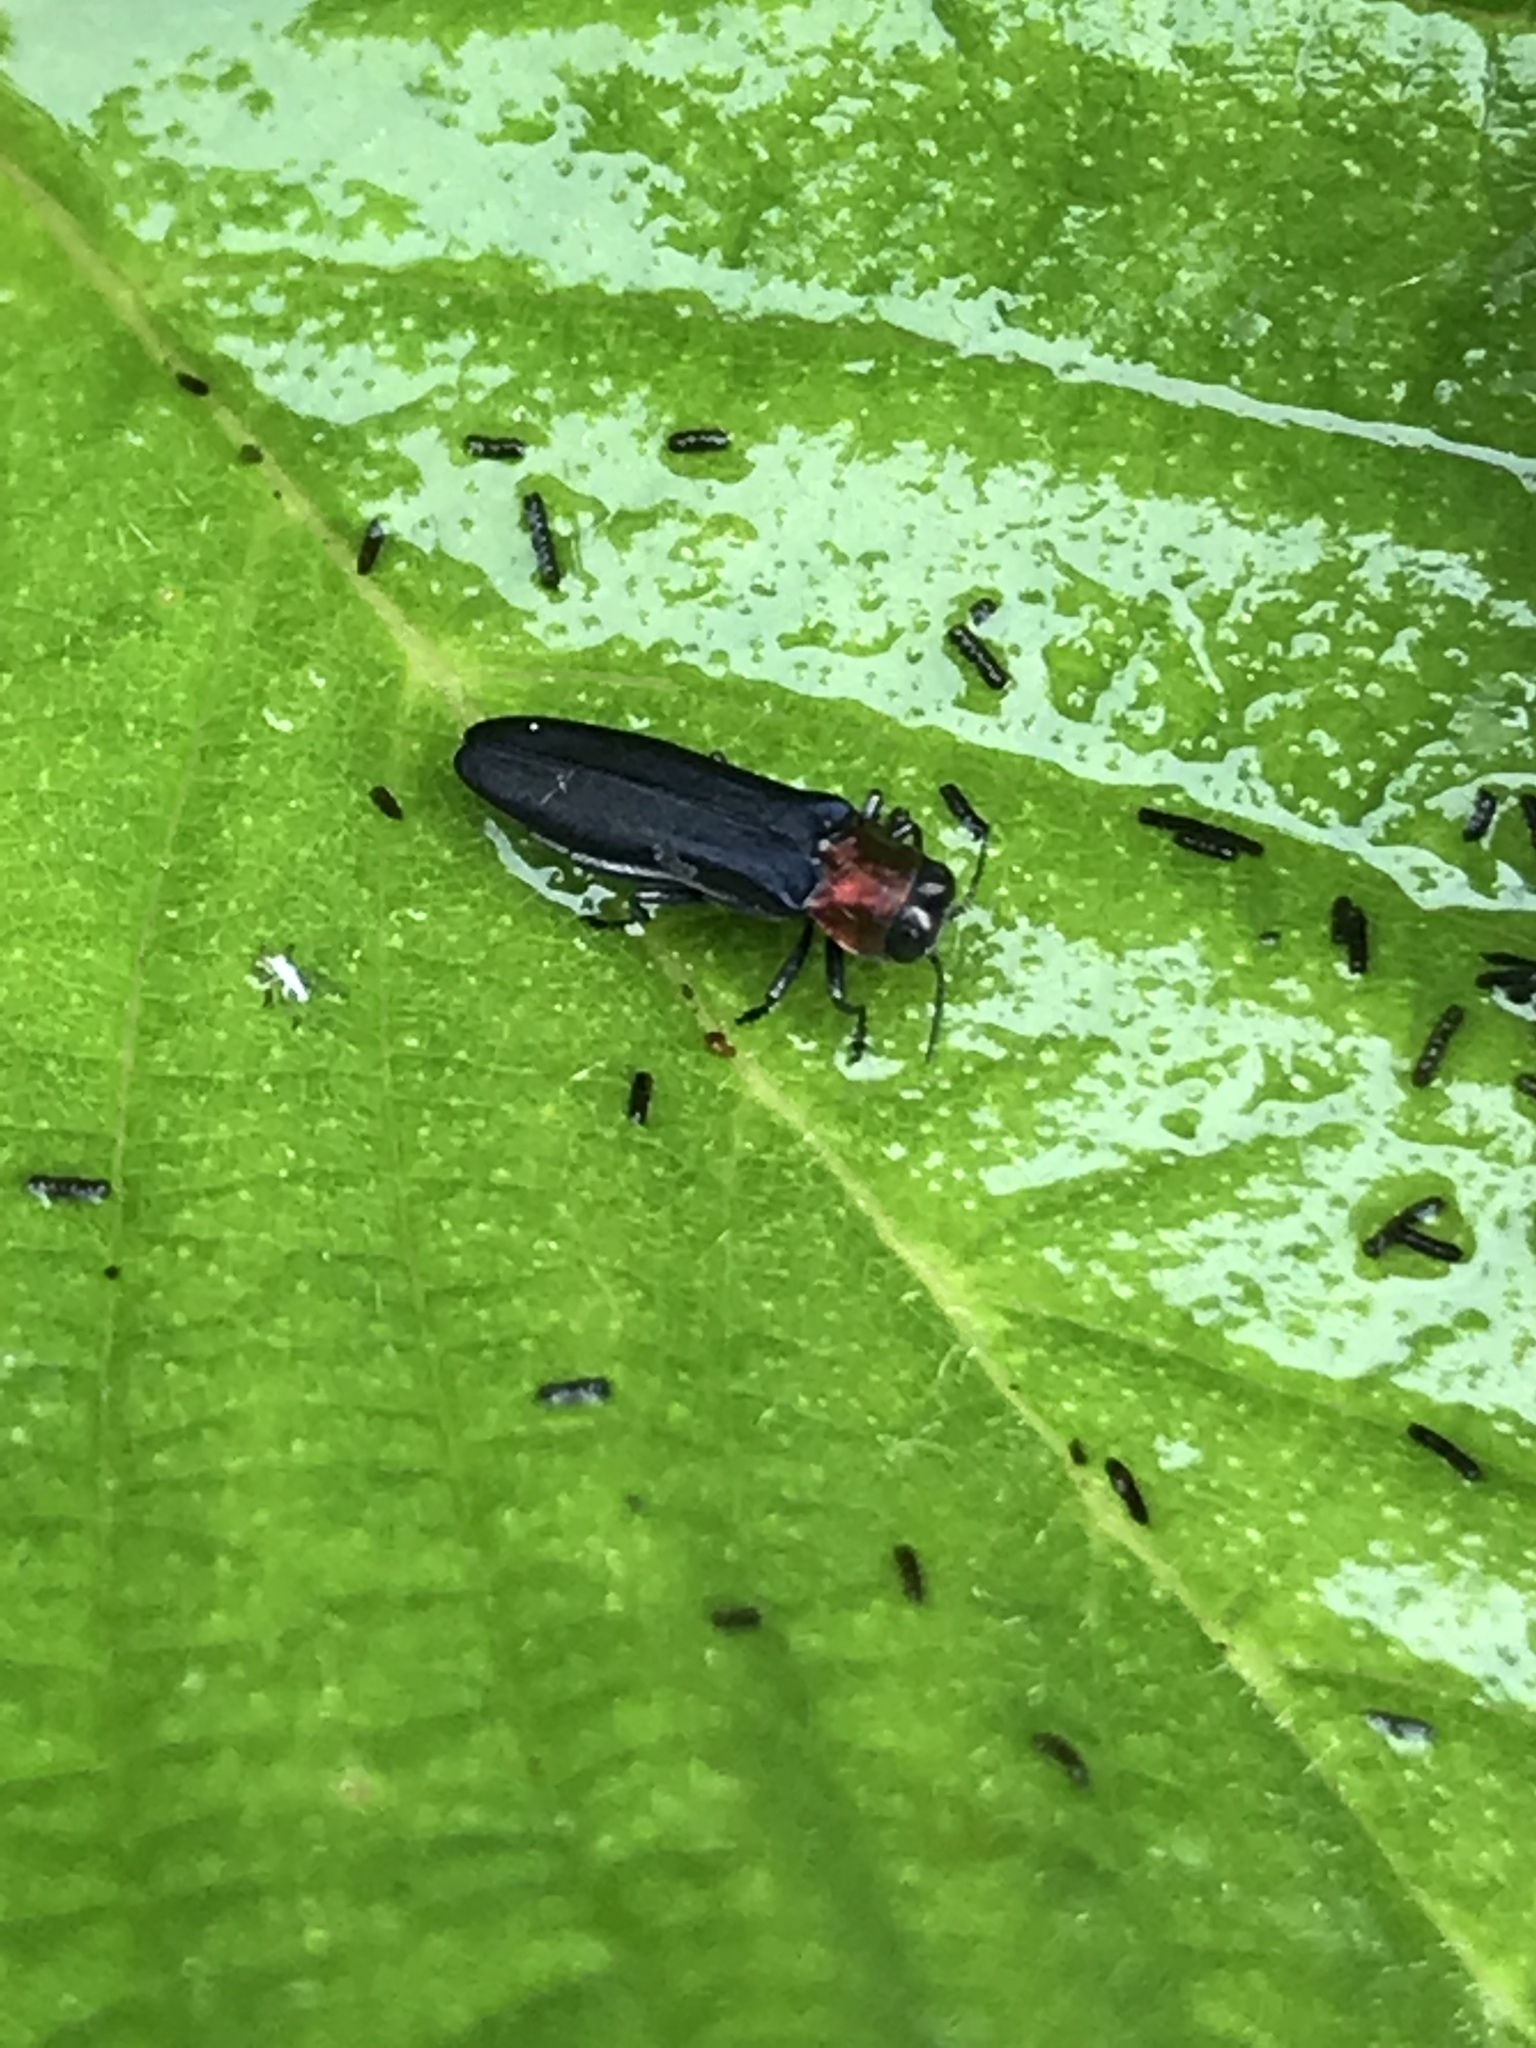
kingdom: Animalia
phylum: Arthropoda
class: Insecta
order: Coleoptera
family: Buprestidae
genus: Agrilus
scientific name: Agrilus ruficollis
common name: Red-necked cane borer beetle
